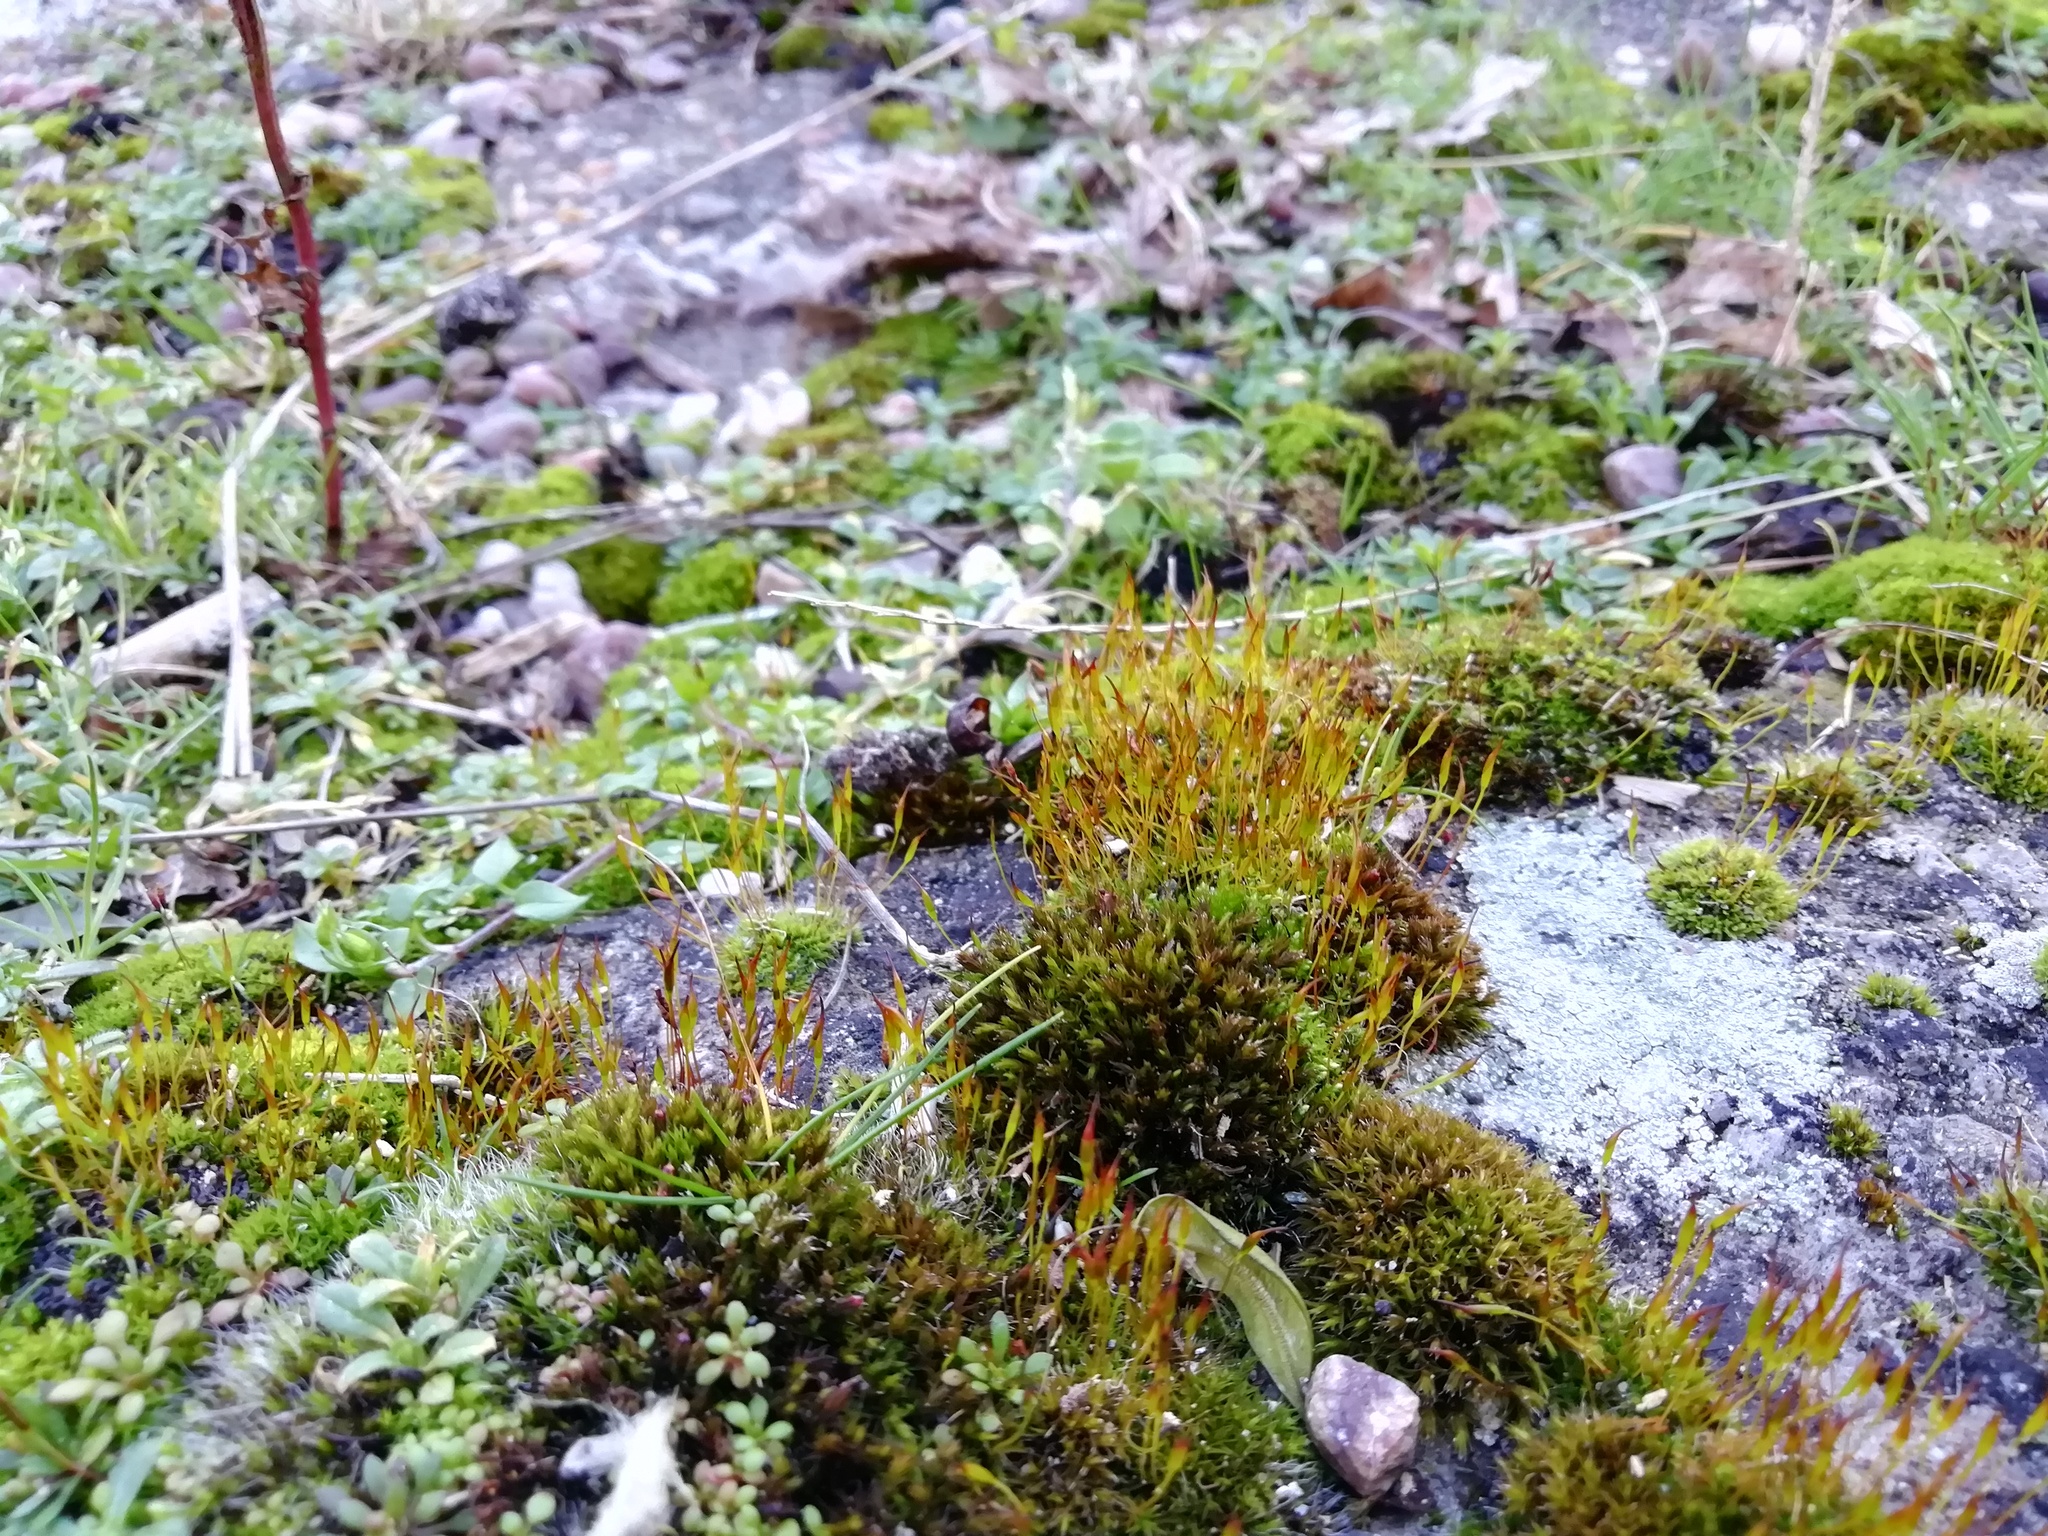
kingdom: Plantae
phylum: Bryophyta
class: Bryopsida
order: Pottiales
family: Pottiaceae
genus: Tortula
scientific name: Tortula muralis
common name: Wall screw-moss
